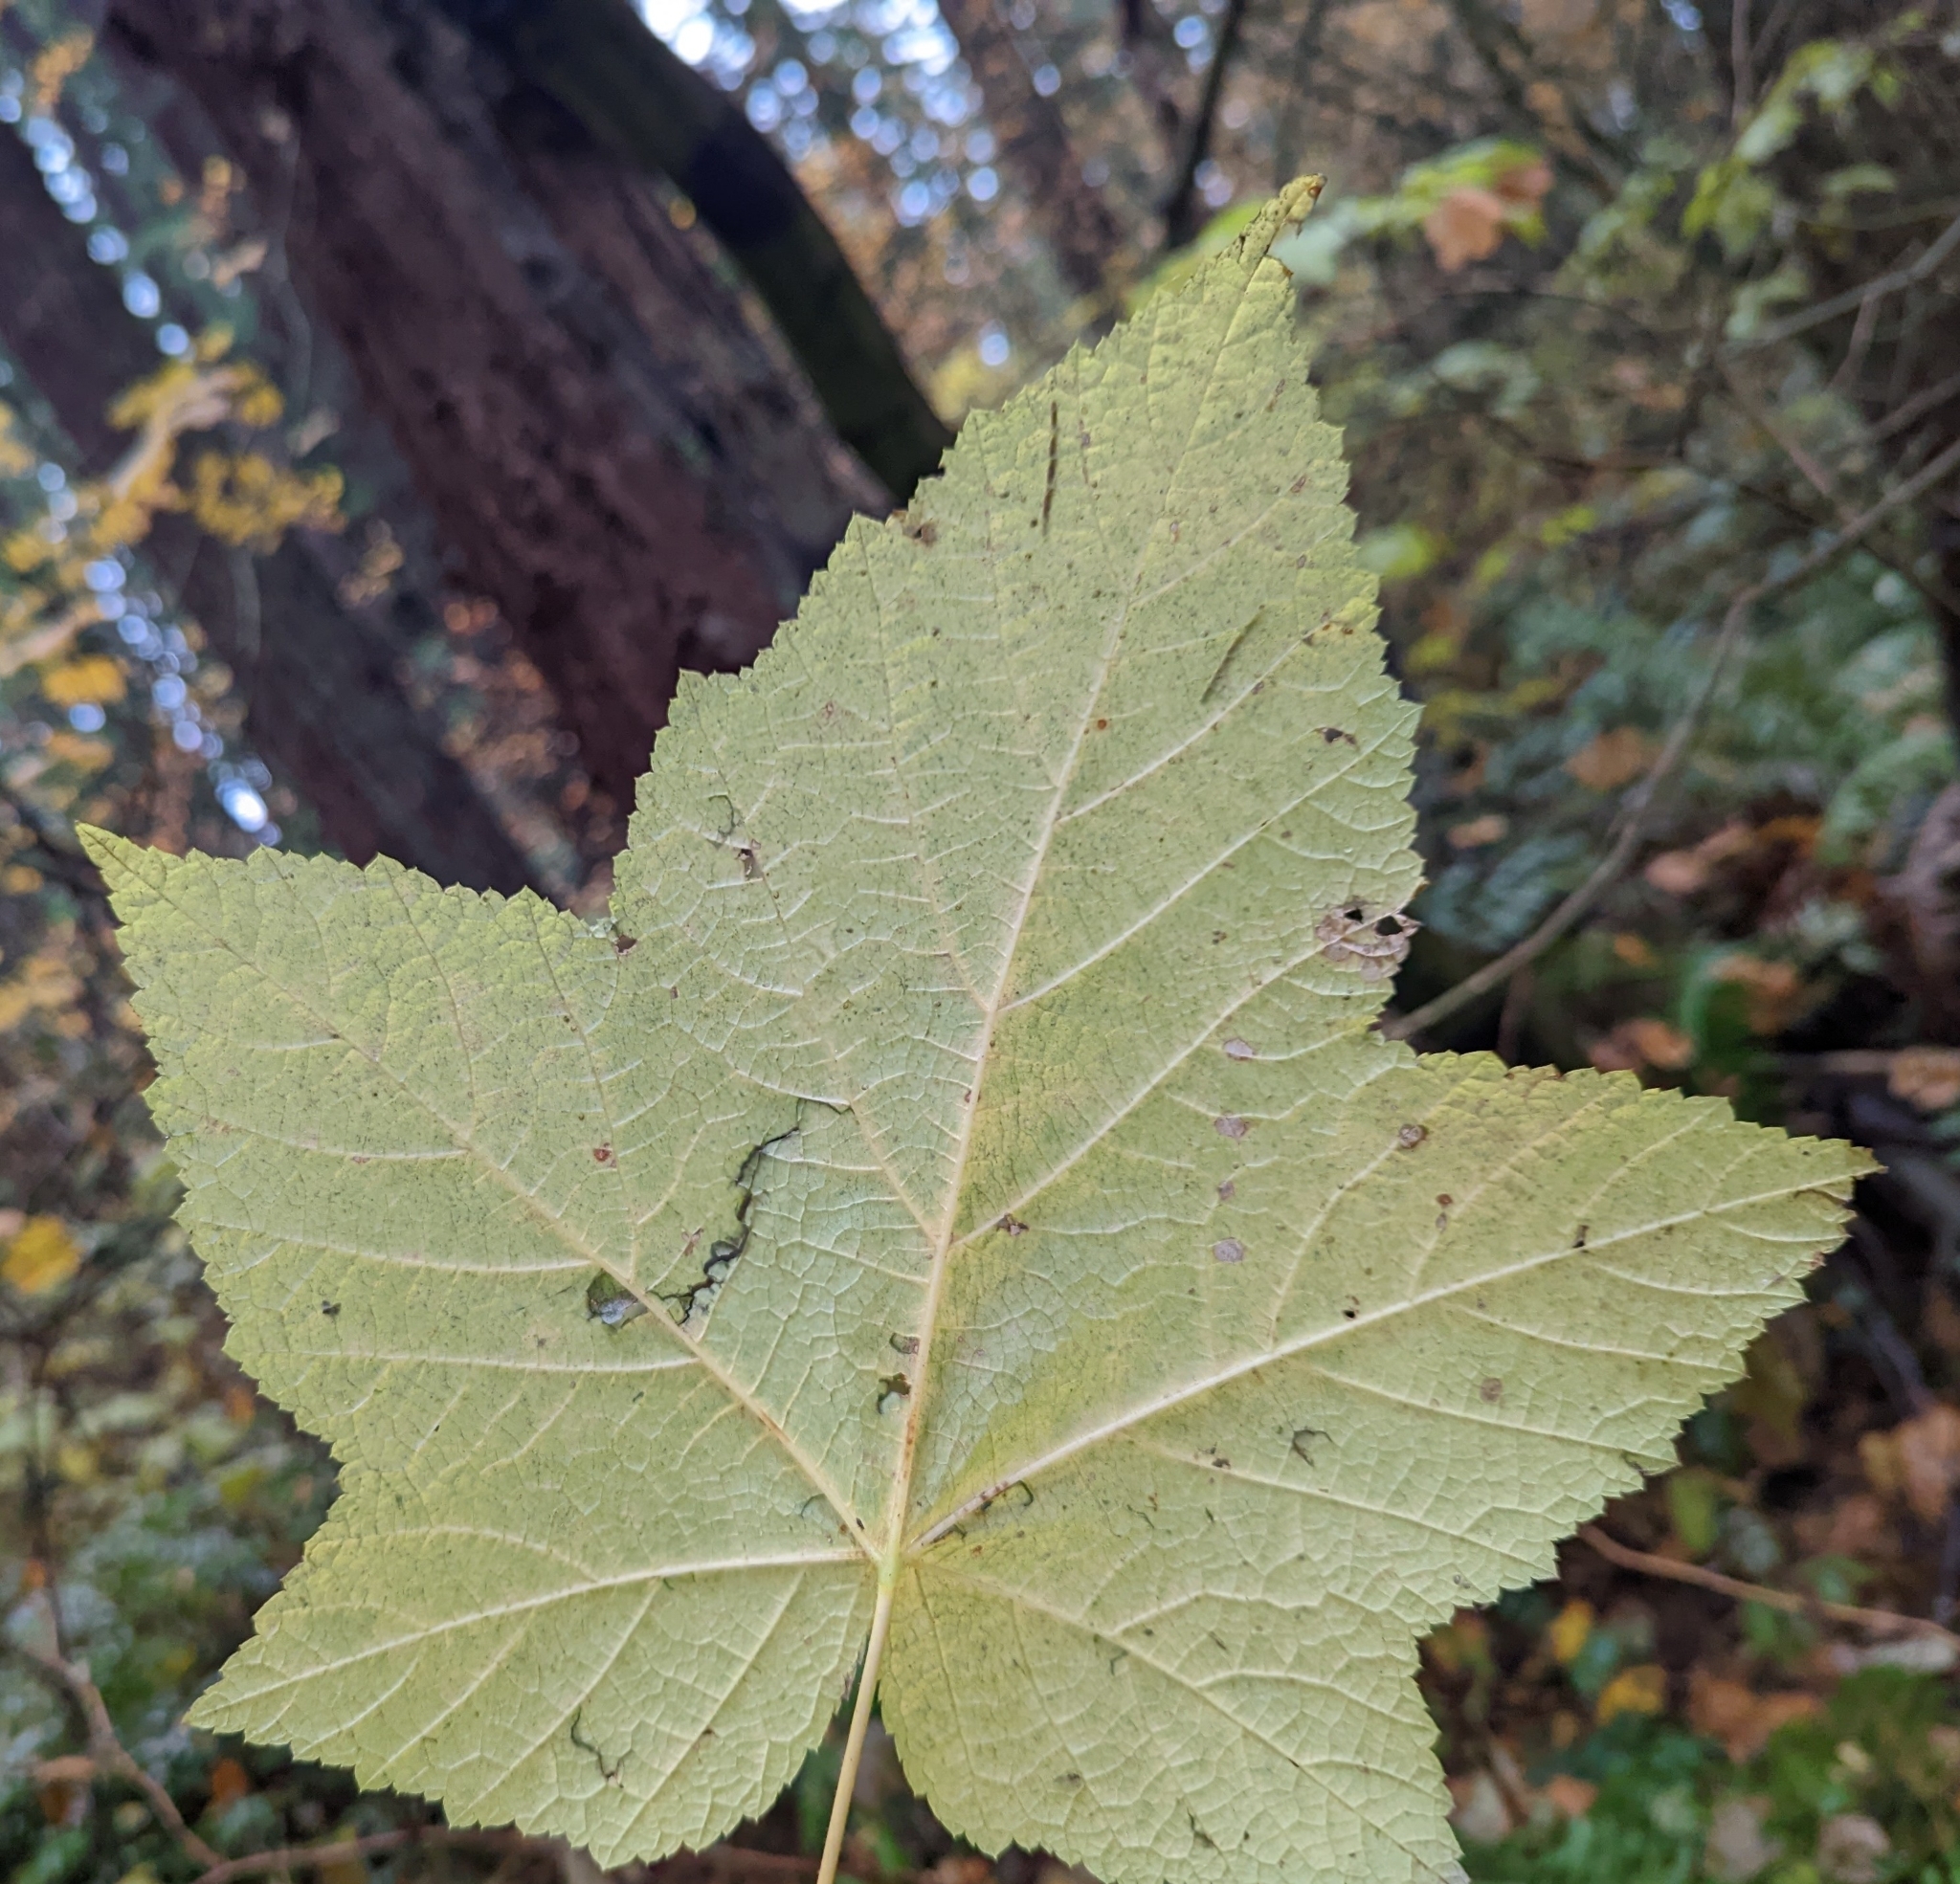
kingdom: Plantae
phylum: Tracheophyta
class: Magnoliopsida
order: Rosales
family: Rosaceae
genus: Rubus
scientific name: Rubus parviflorus
